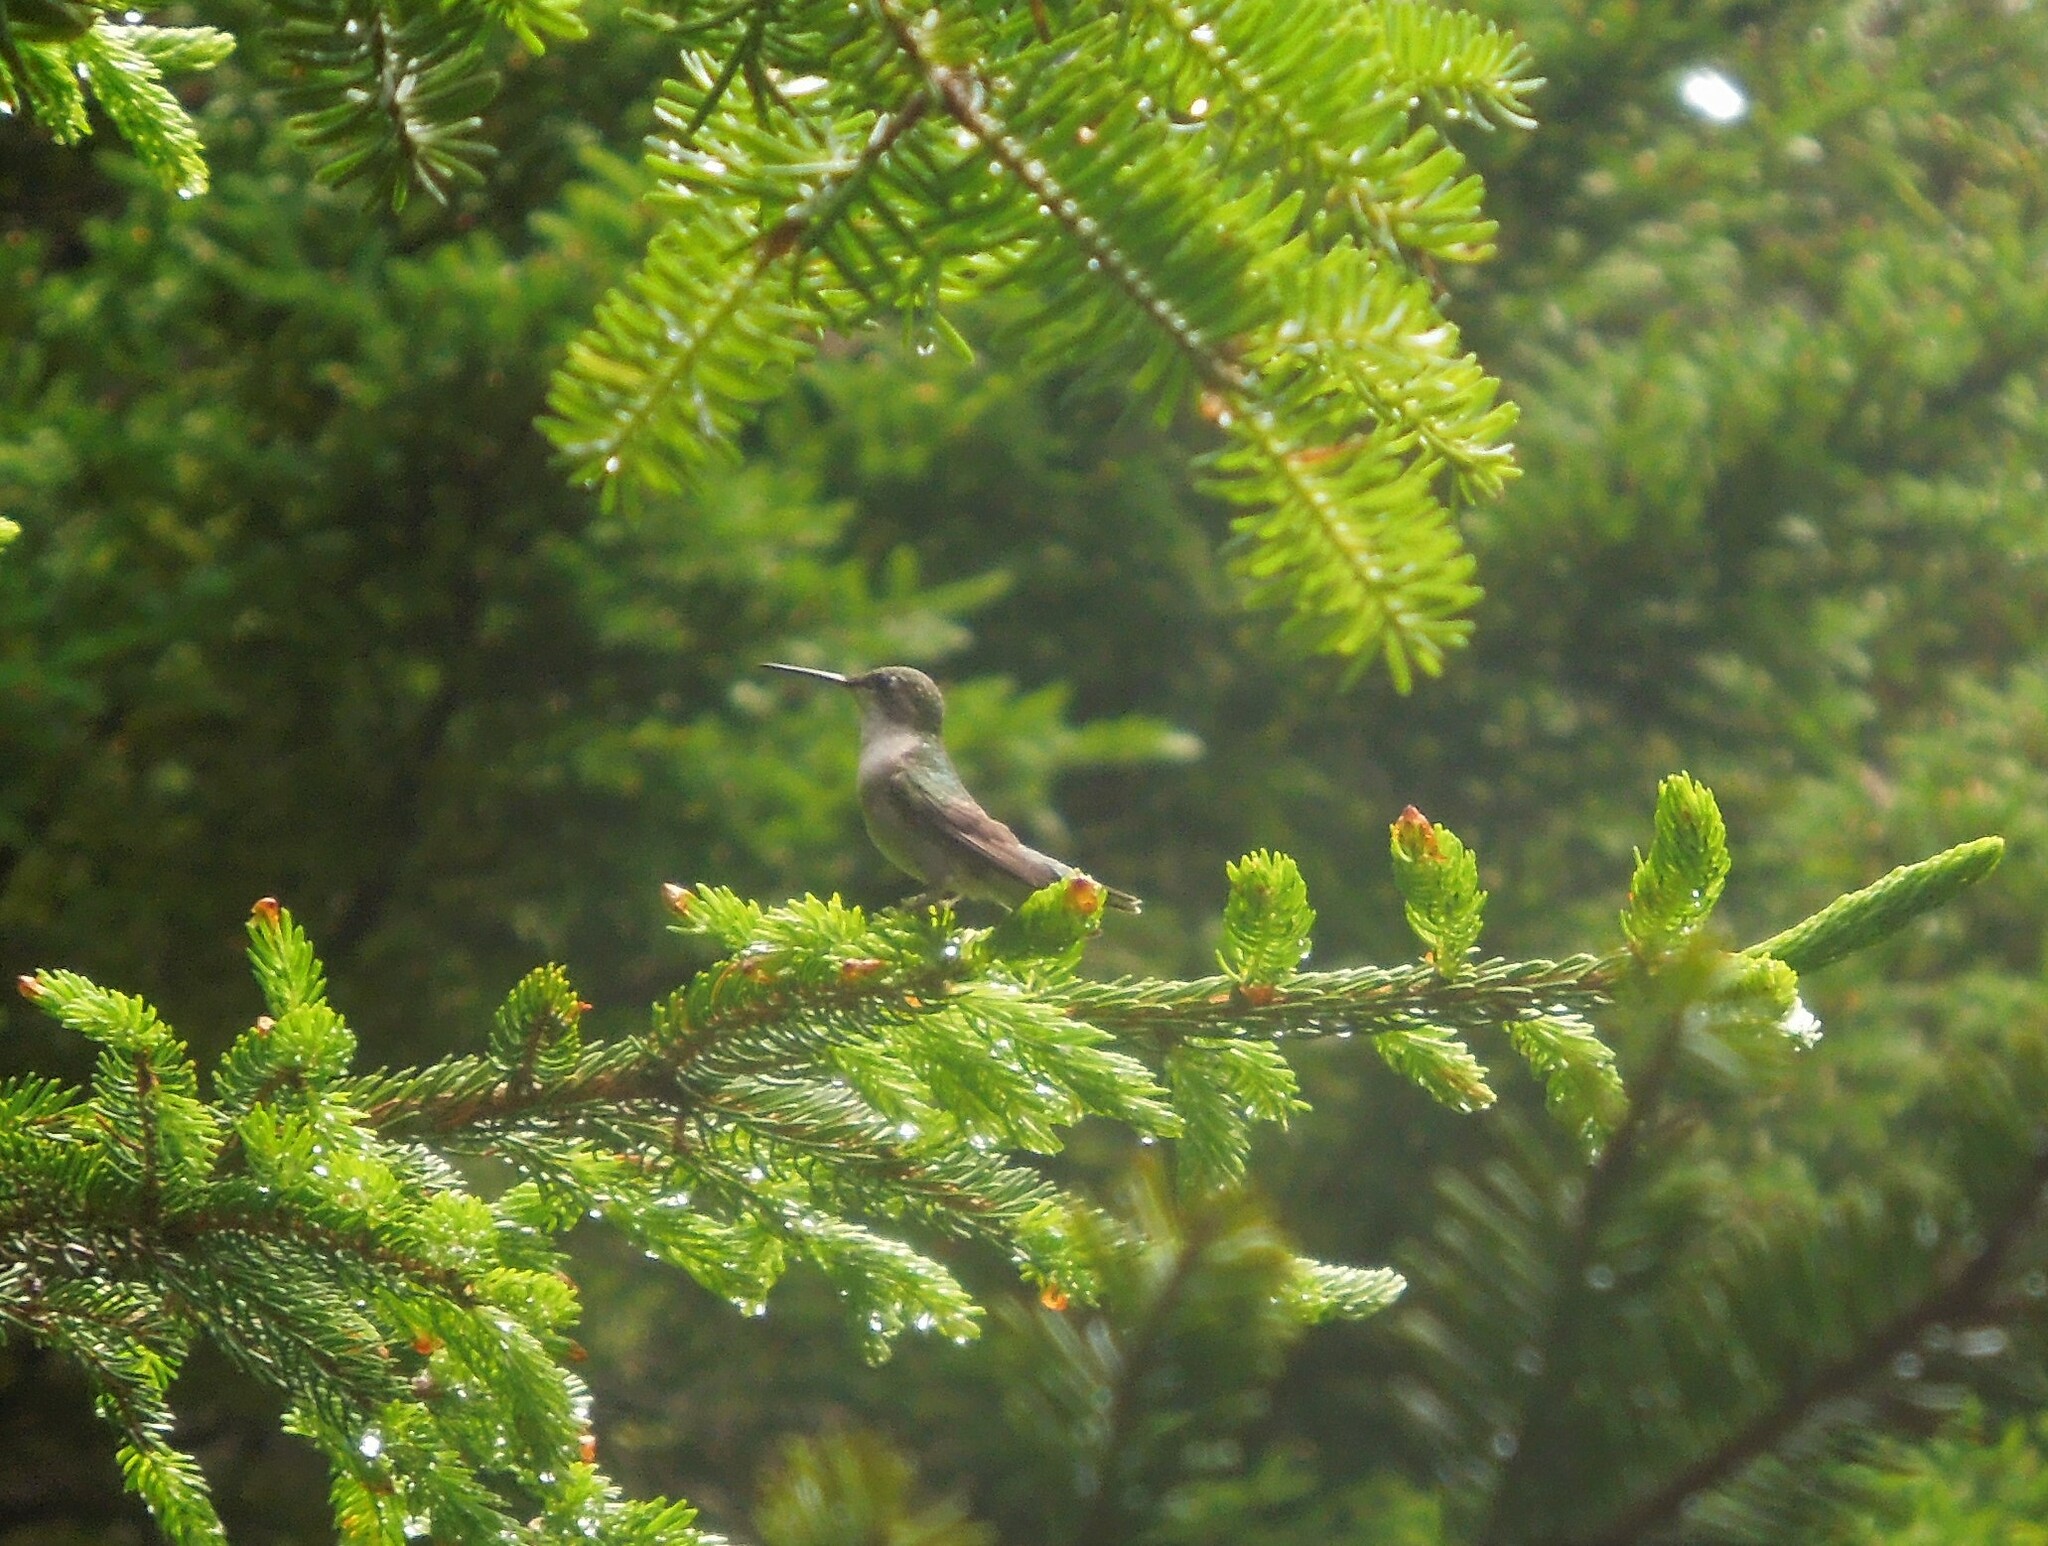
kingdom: Animalia
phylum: Chordata
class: Aves
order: Apodiformes
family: Trochilidae
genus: Archilochus
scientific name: Archilochus colubris
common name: Ruby-throated hummingbird
